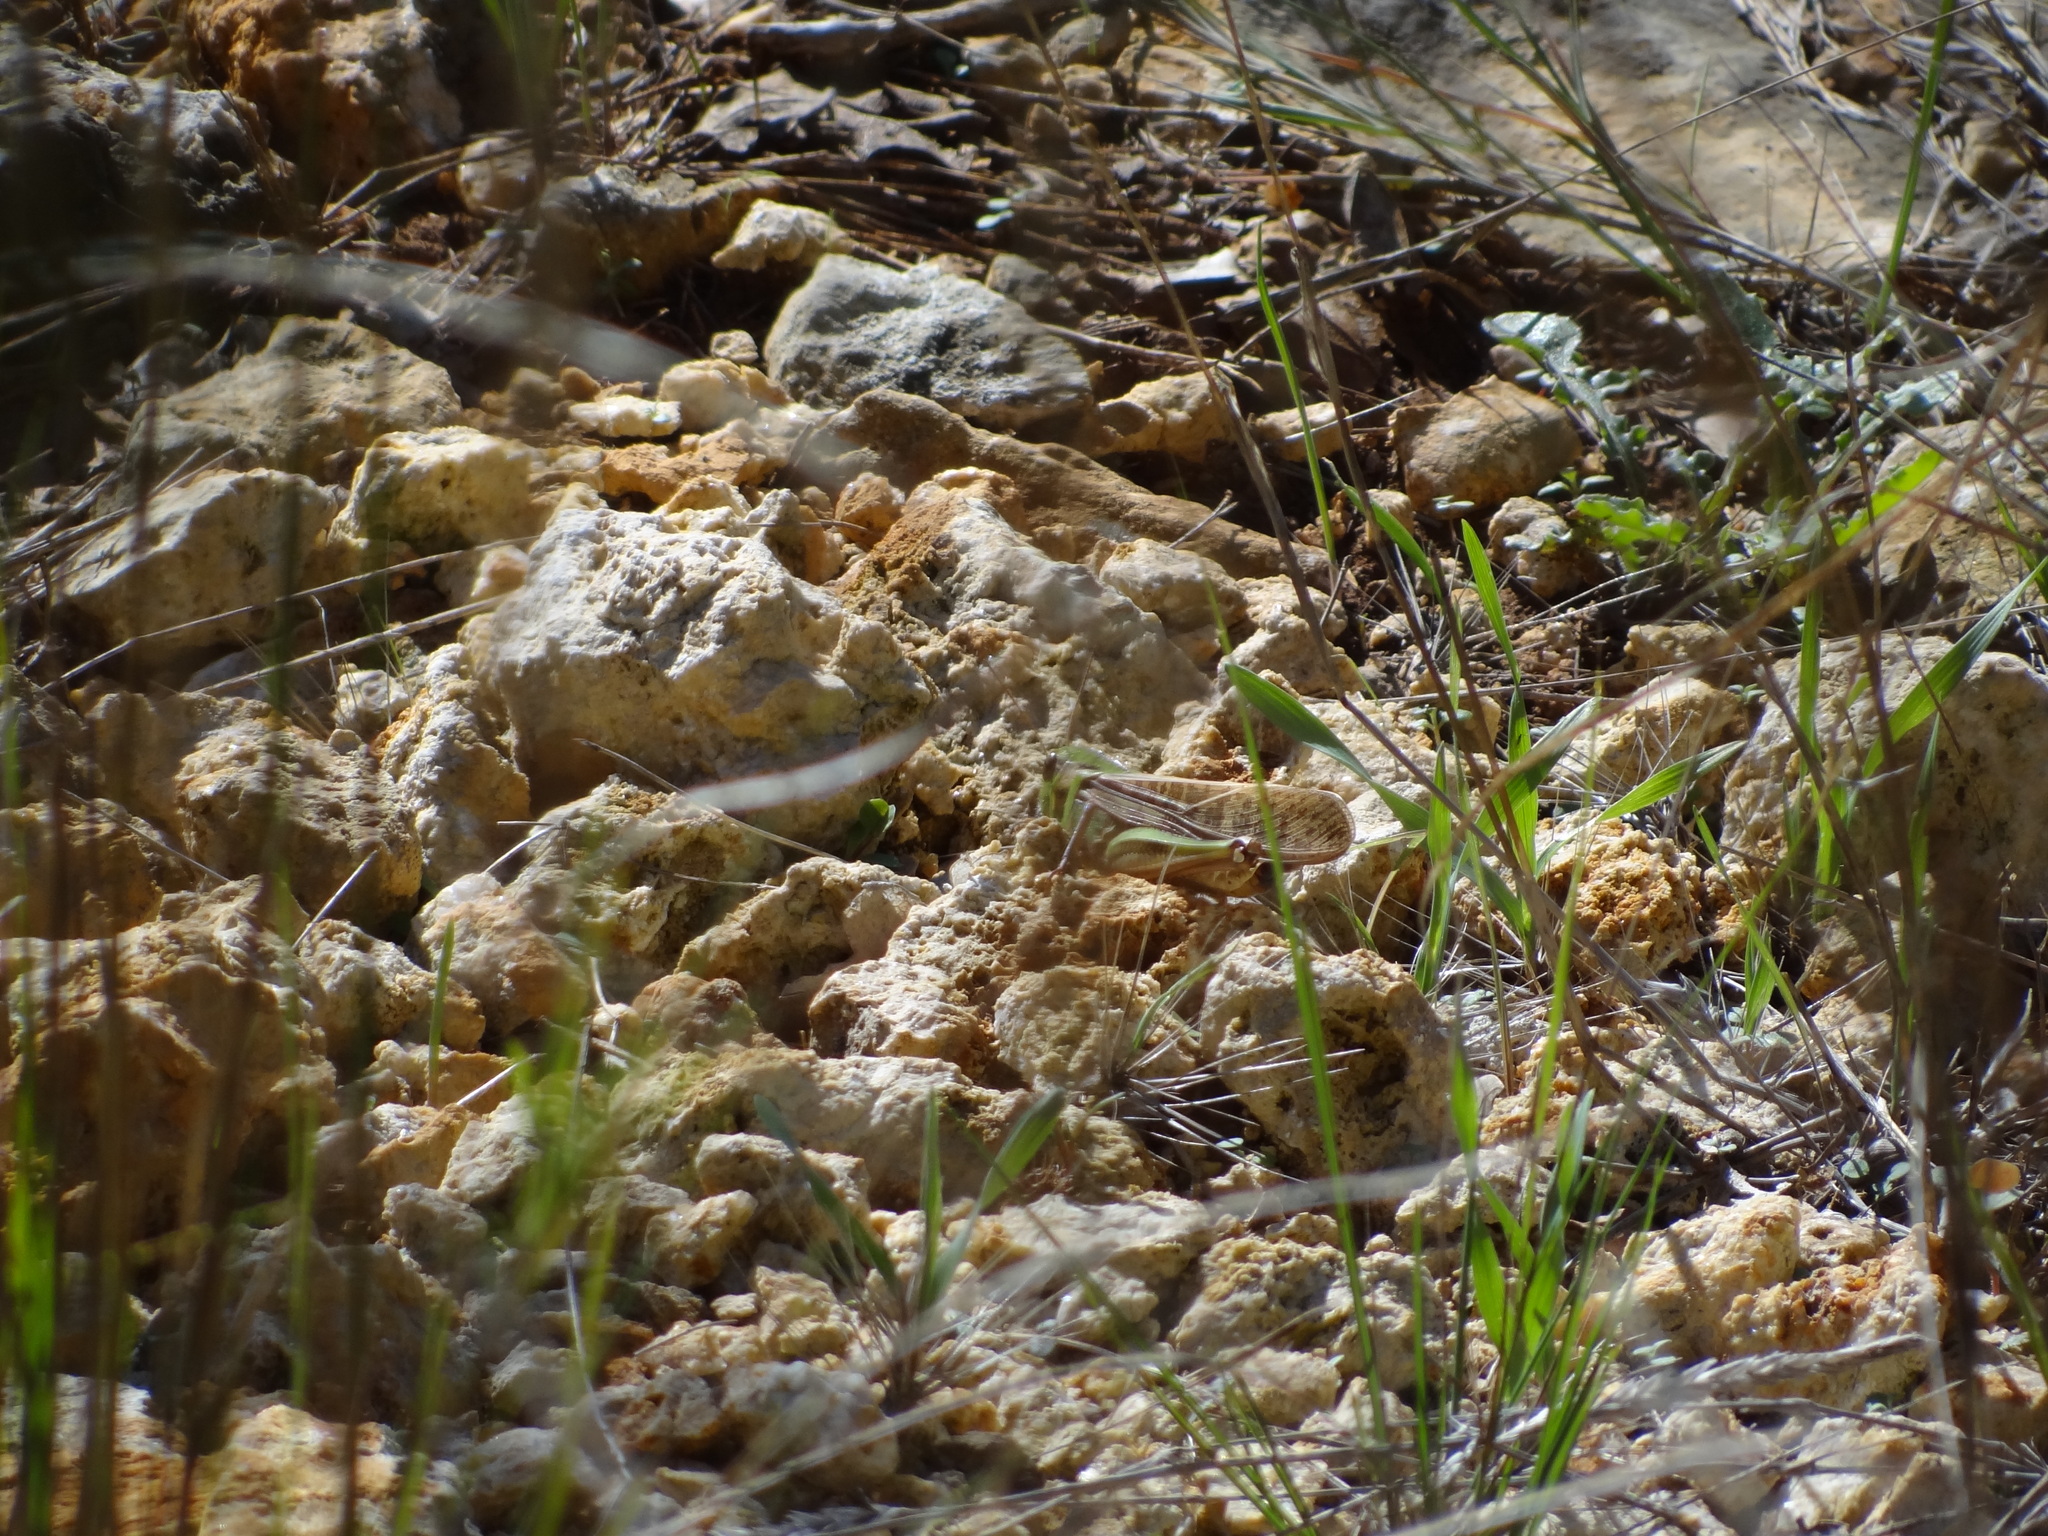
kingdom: Animalia
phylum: Arthropoda
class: Insecta
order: Orthoptera
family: Acrididae
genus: Locusta
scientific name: Locusta migratoria
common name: Migratory locust
